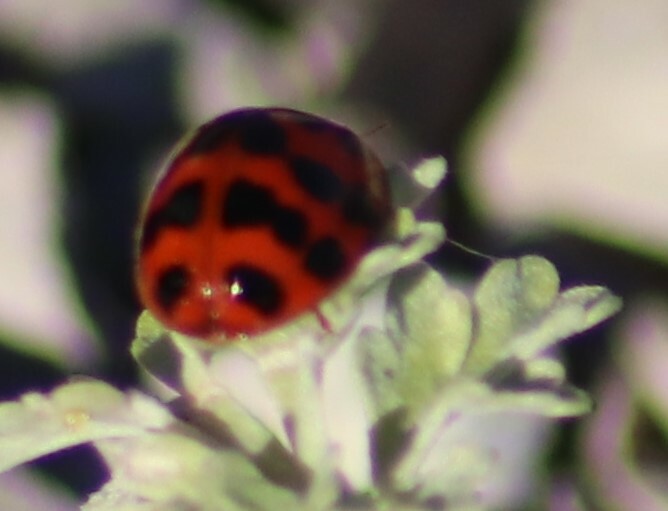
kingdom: Animalia
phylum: Arthropoda
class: Insecta
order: Coleoptera
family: Coccinellidae
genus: Harmonia
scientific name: Harmonia axyridis
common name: Harlequin ladybird
